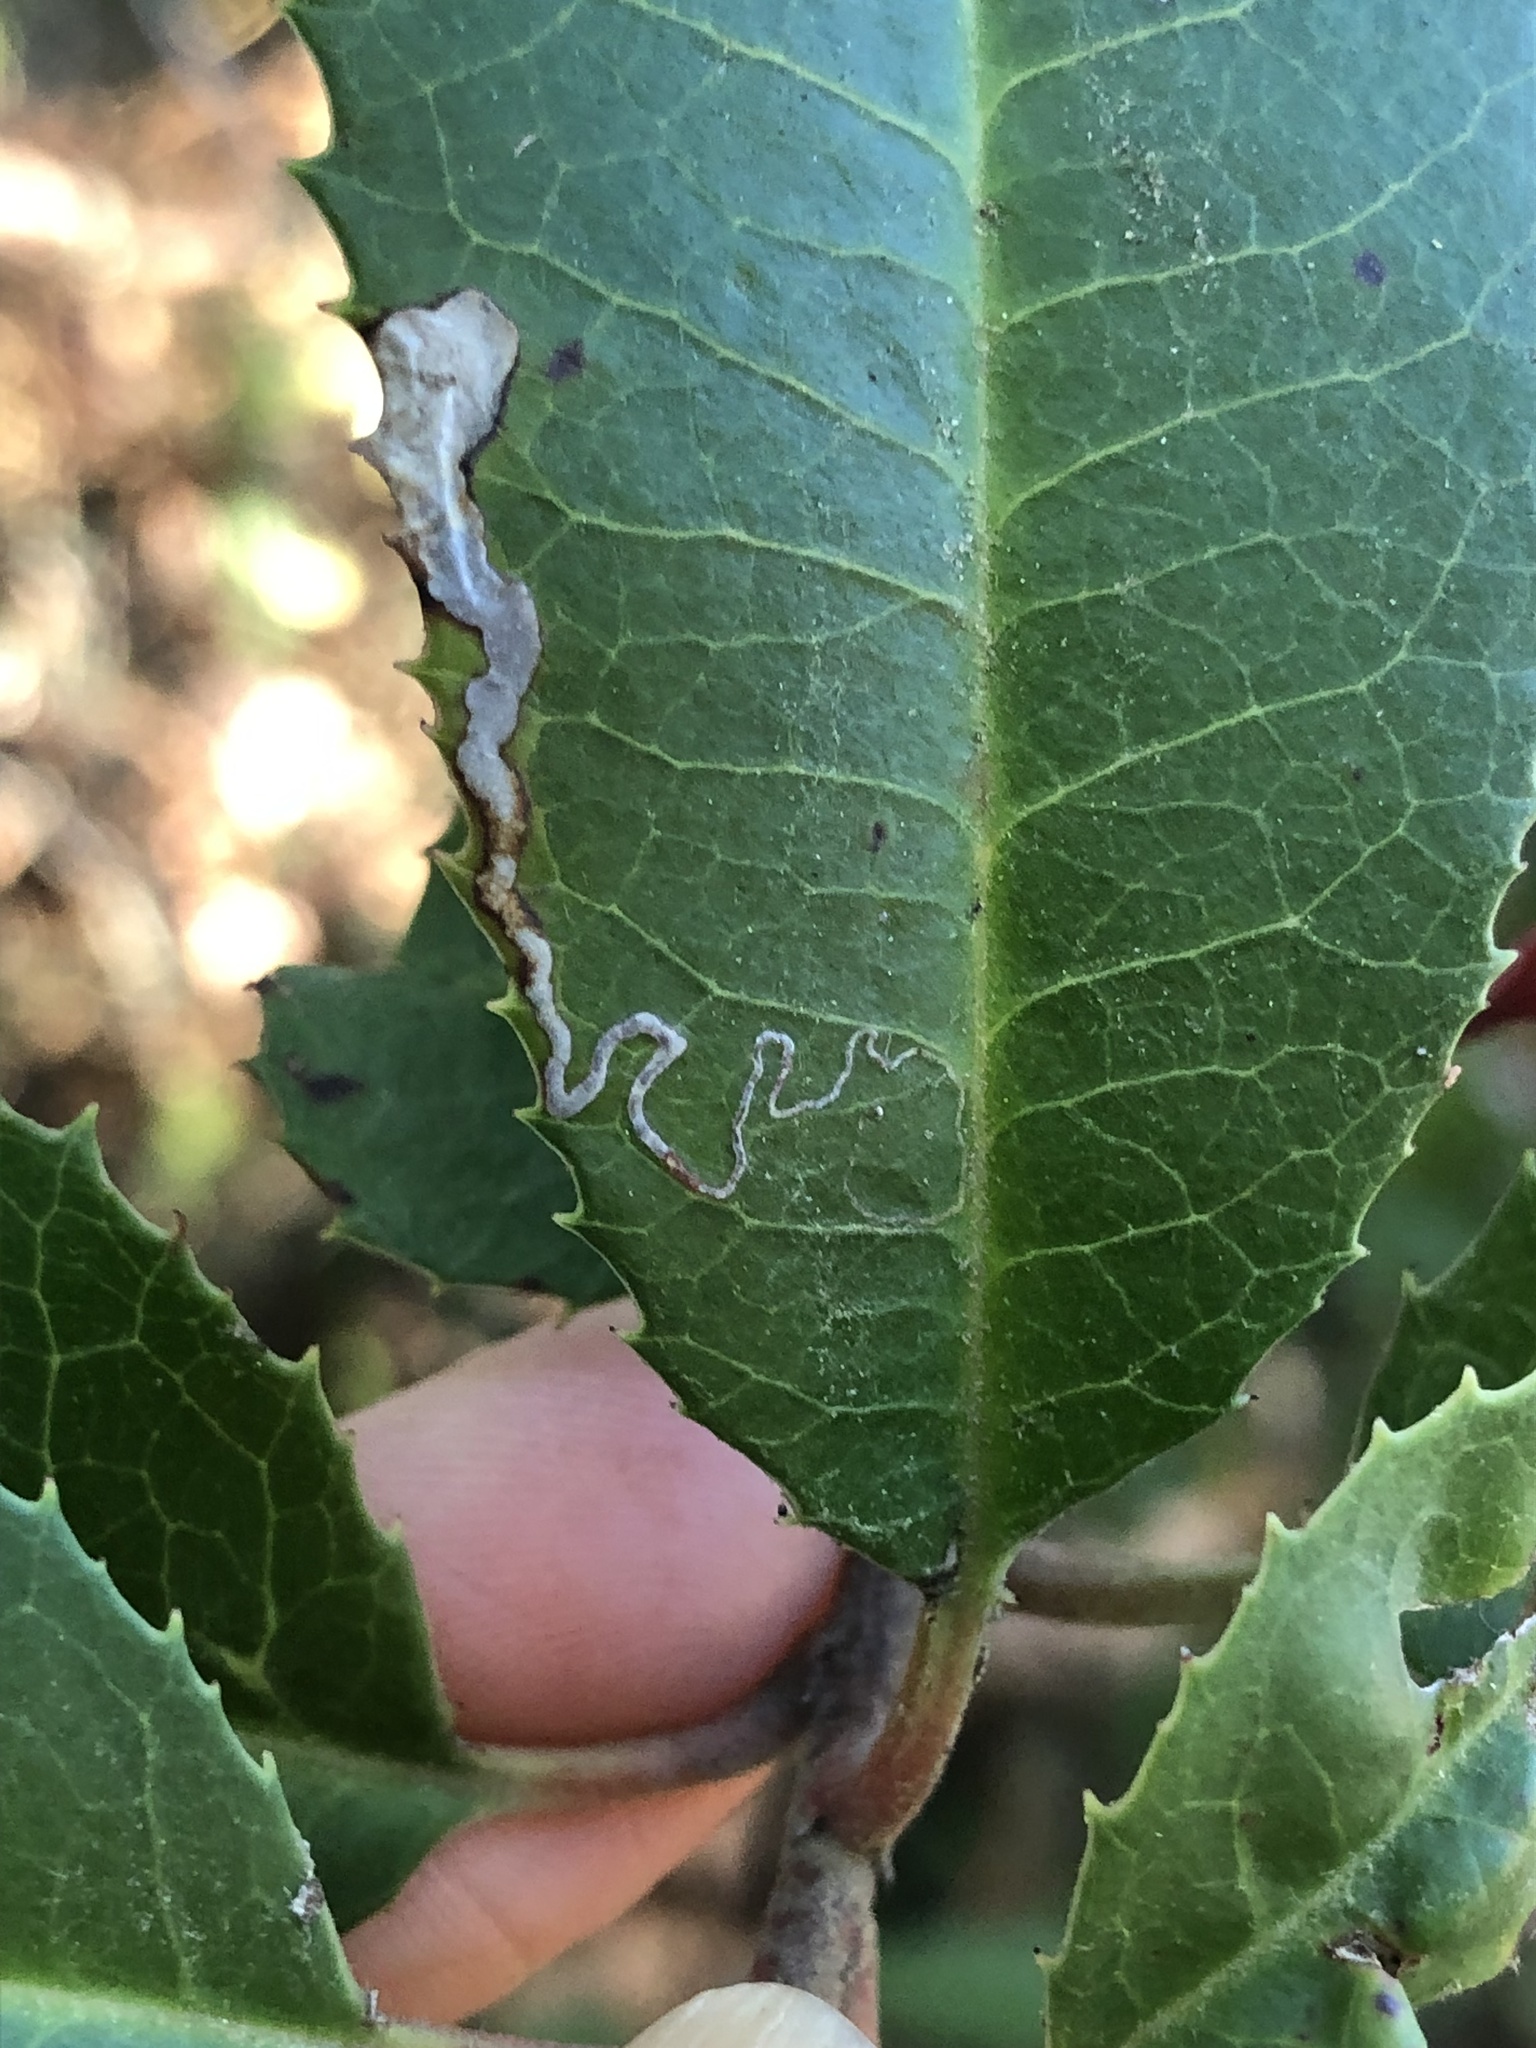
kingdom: Animalia
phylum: Arthropoda
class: Insecta
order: Lepidoptera
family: Nepticulidae
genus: Stigmella
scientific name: Stigmella heteromelis
